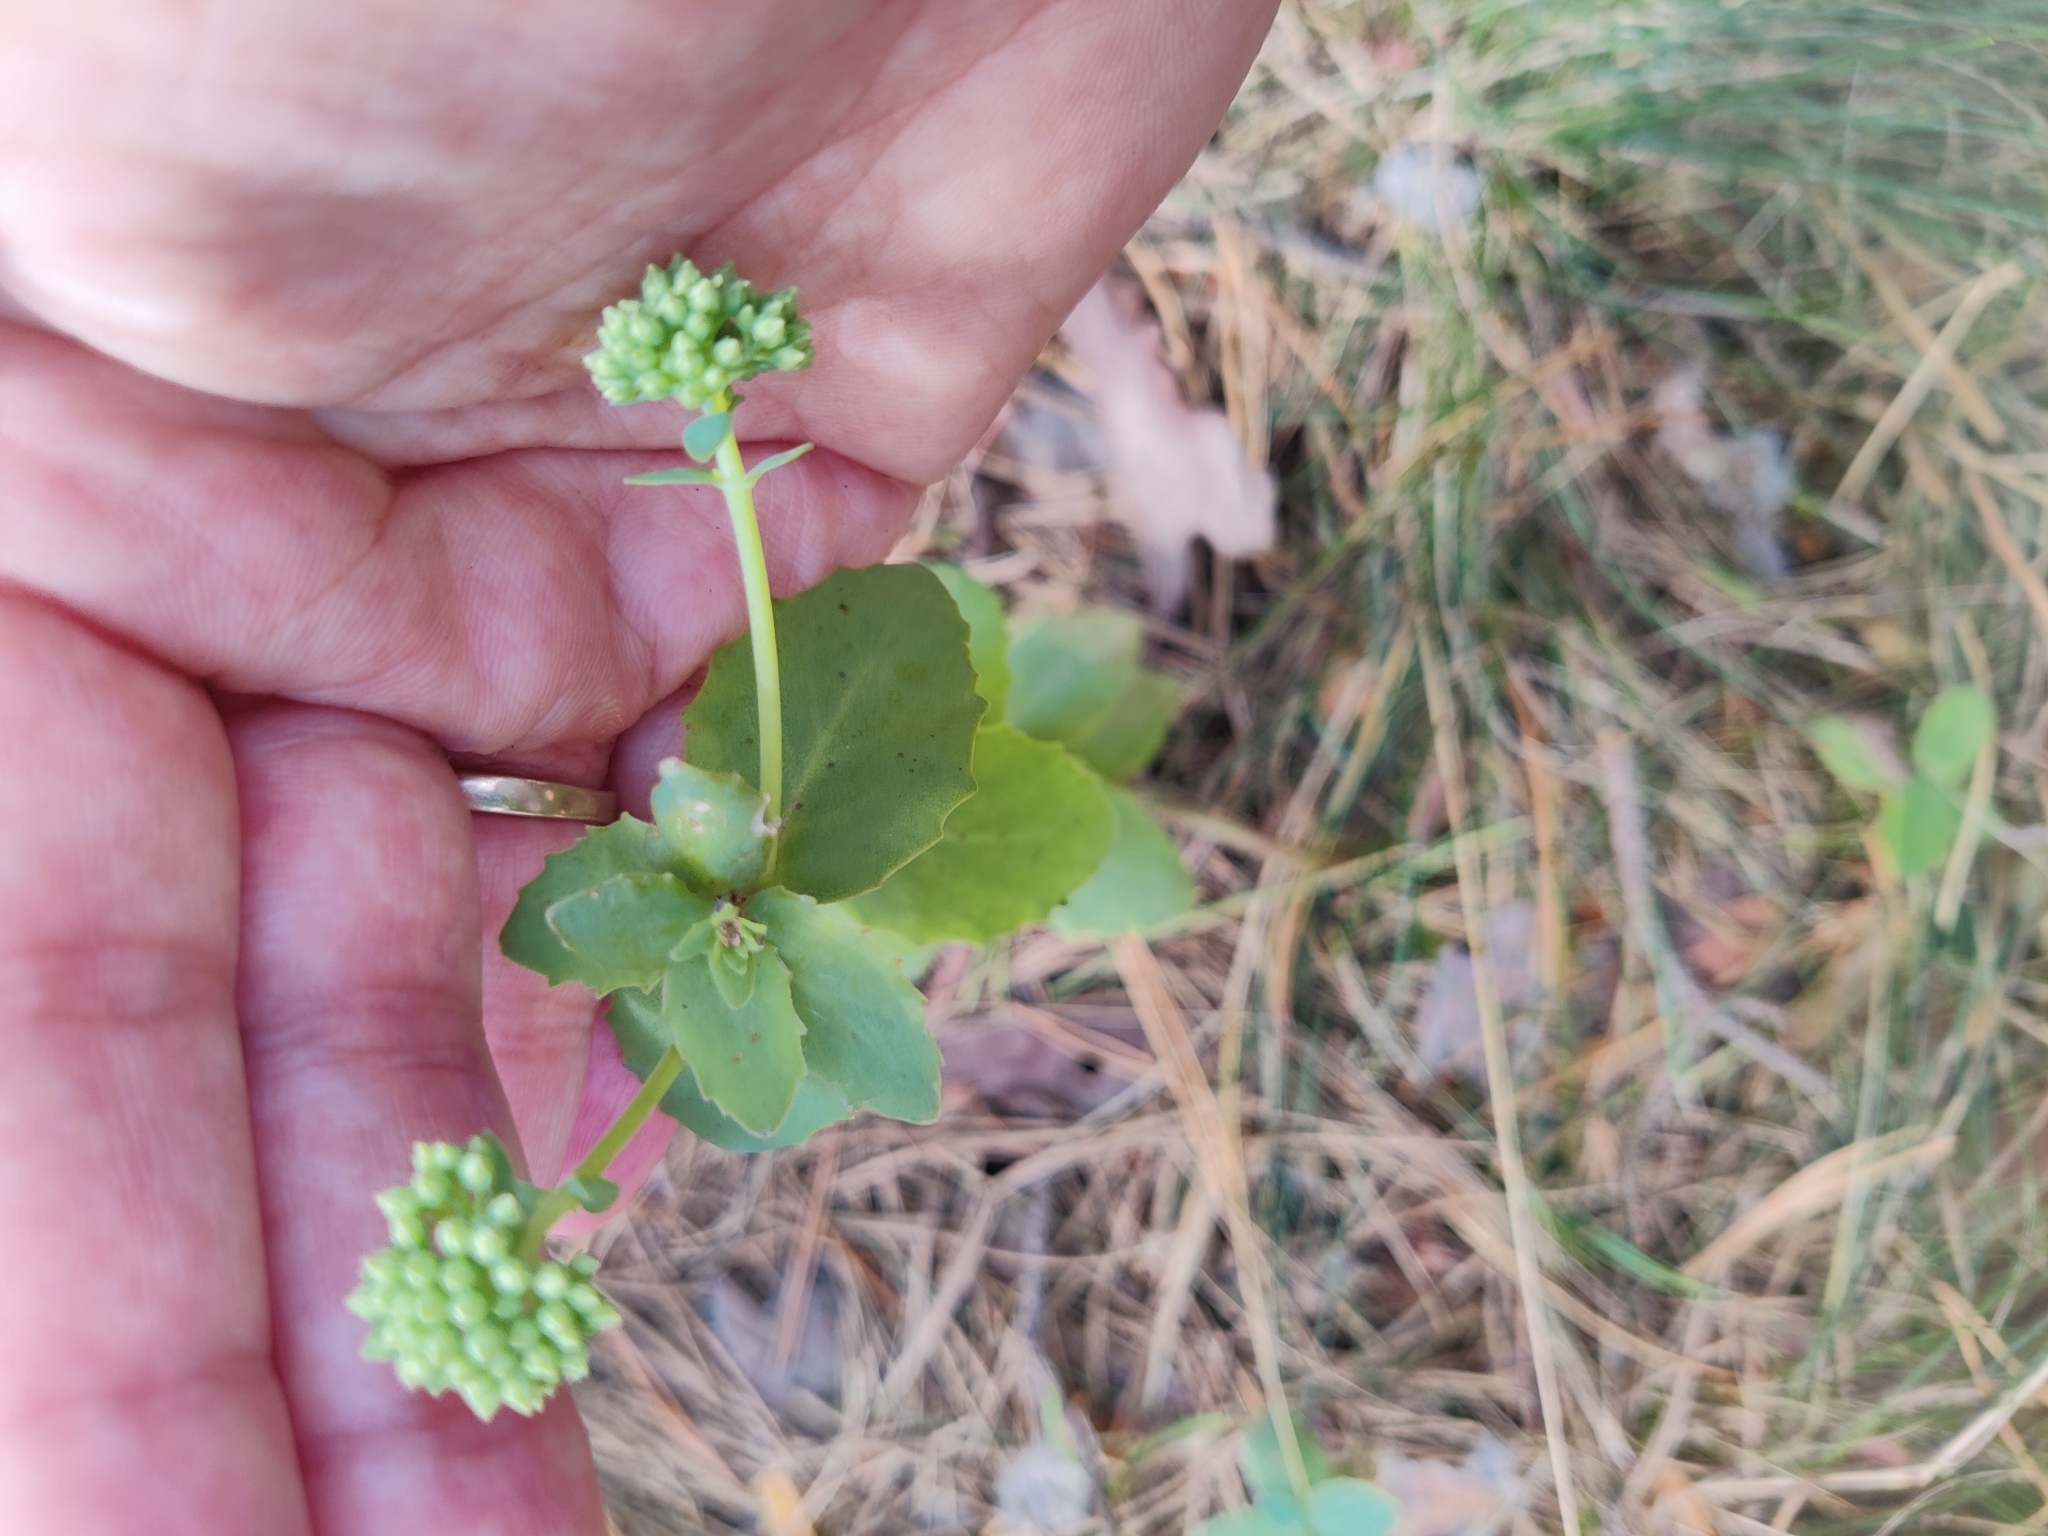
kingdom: Plantae
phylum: Tracheophyta
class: Magnoliopsida
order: Saxifragales
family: Crassulaceae
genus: Hylotelephium
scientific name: Hylotelephium maximum
